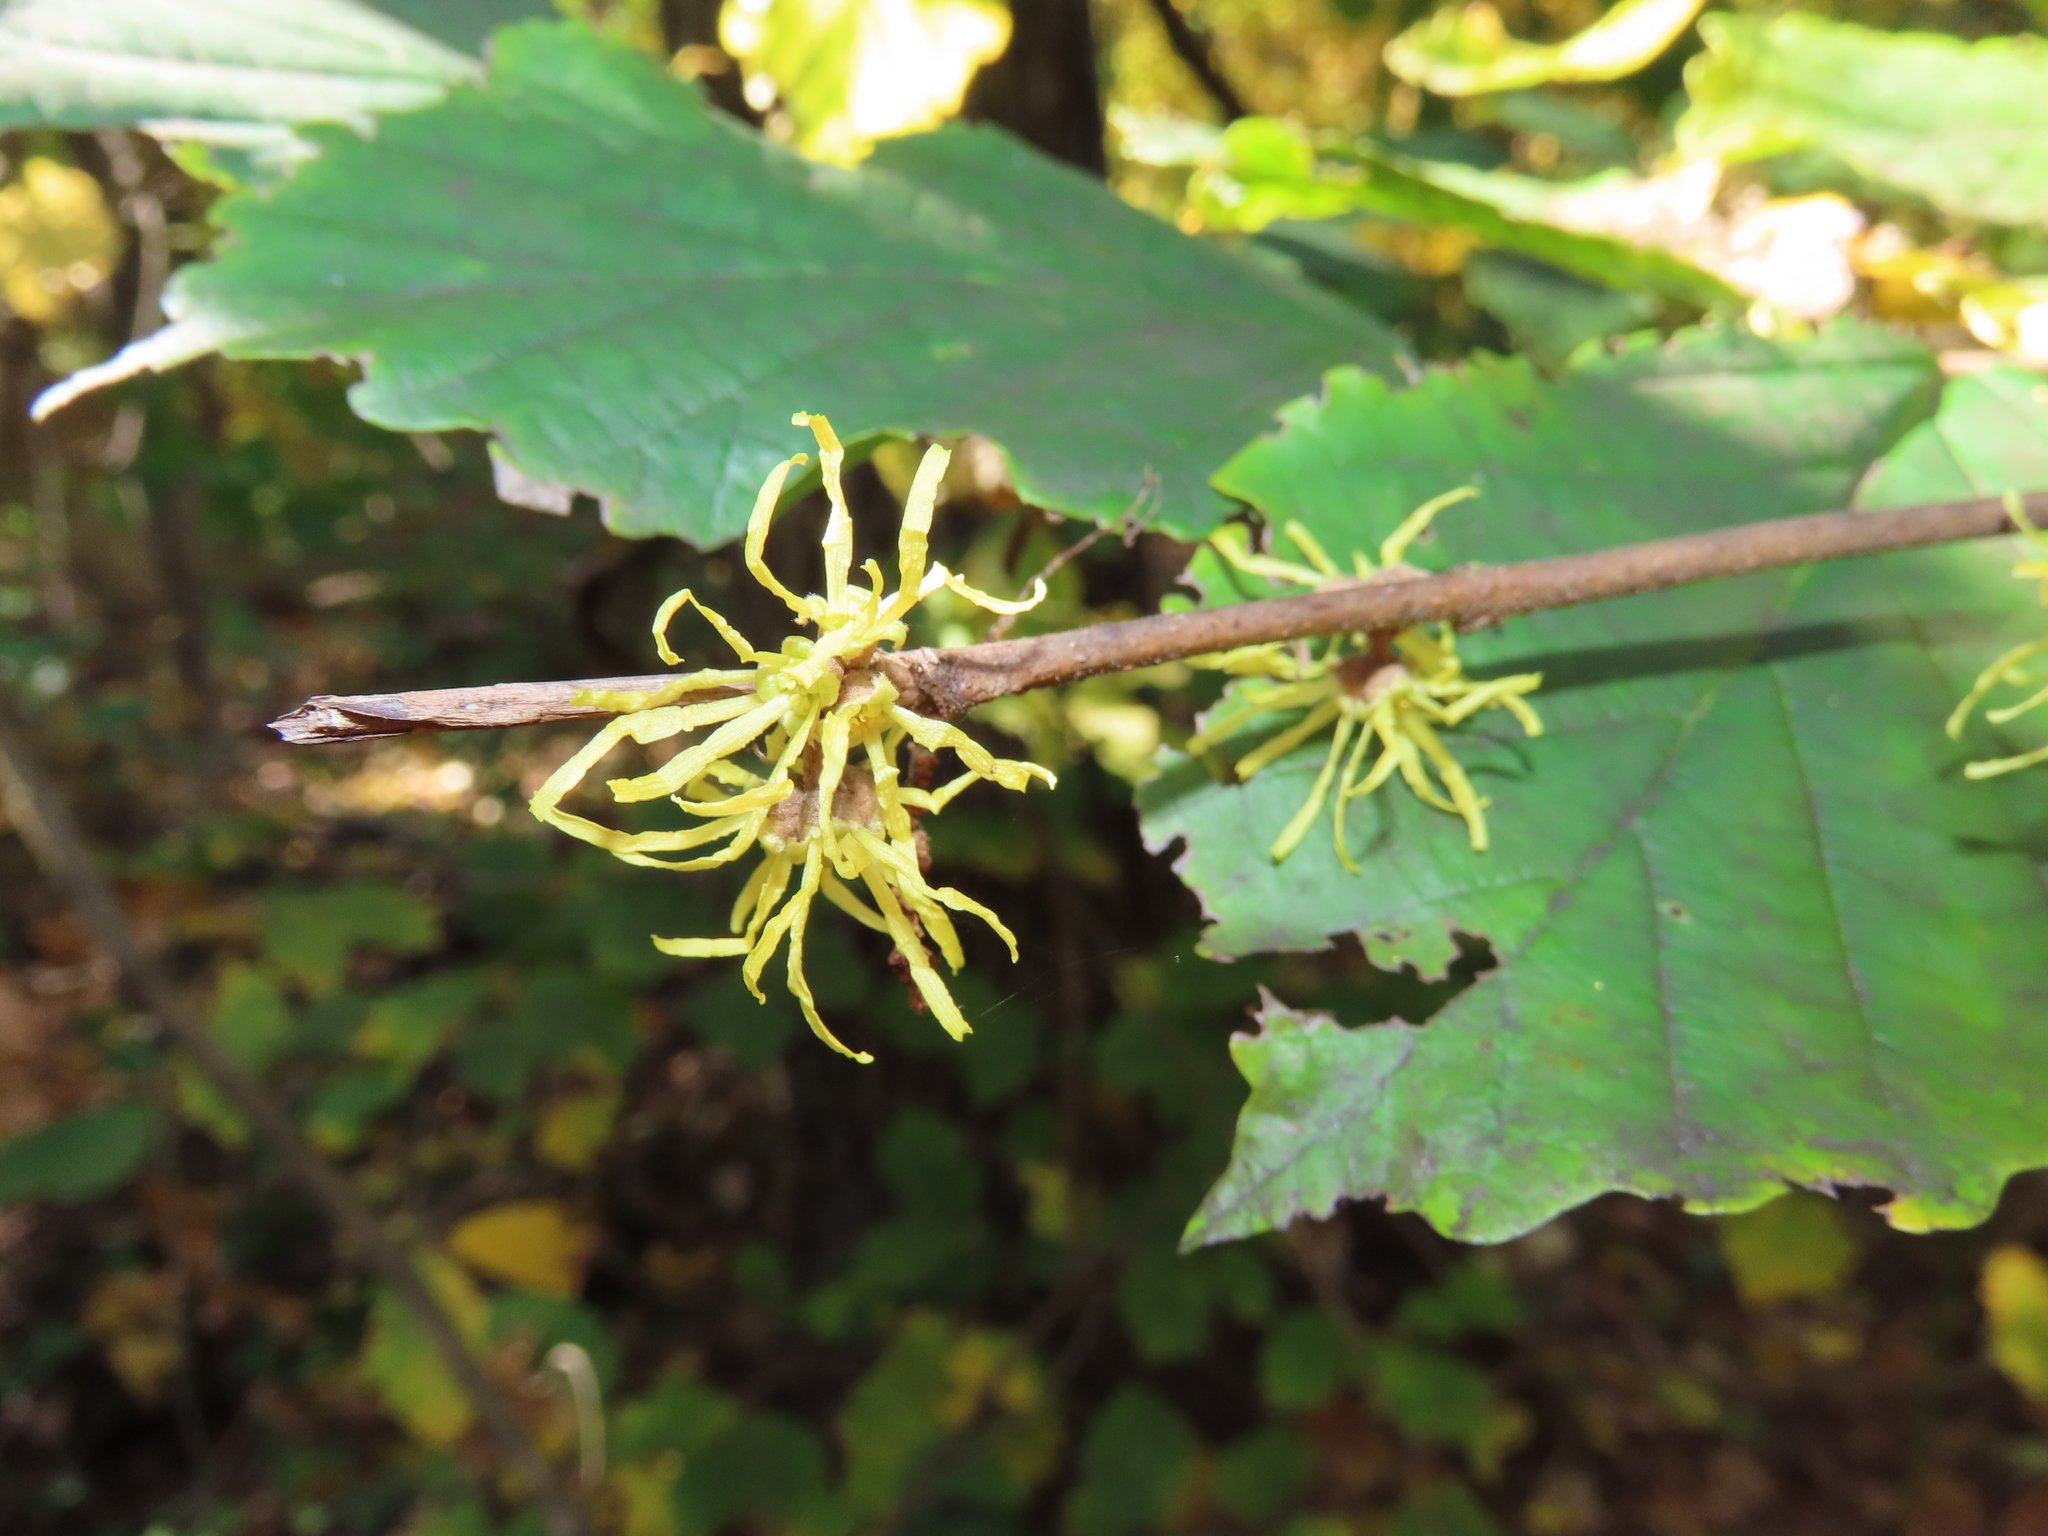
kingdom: Plantae
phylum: Tracheophyta
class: Magnoliopsida
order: Saxifragales
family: Hamamelidaceae
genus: Hamamelis
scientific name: Hamamelis virginiana
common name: Witch-hazel
